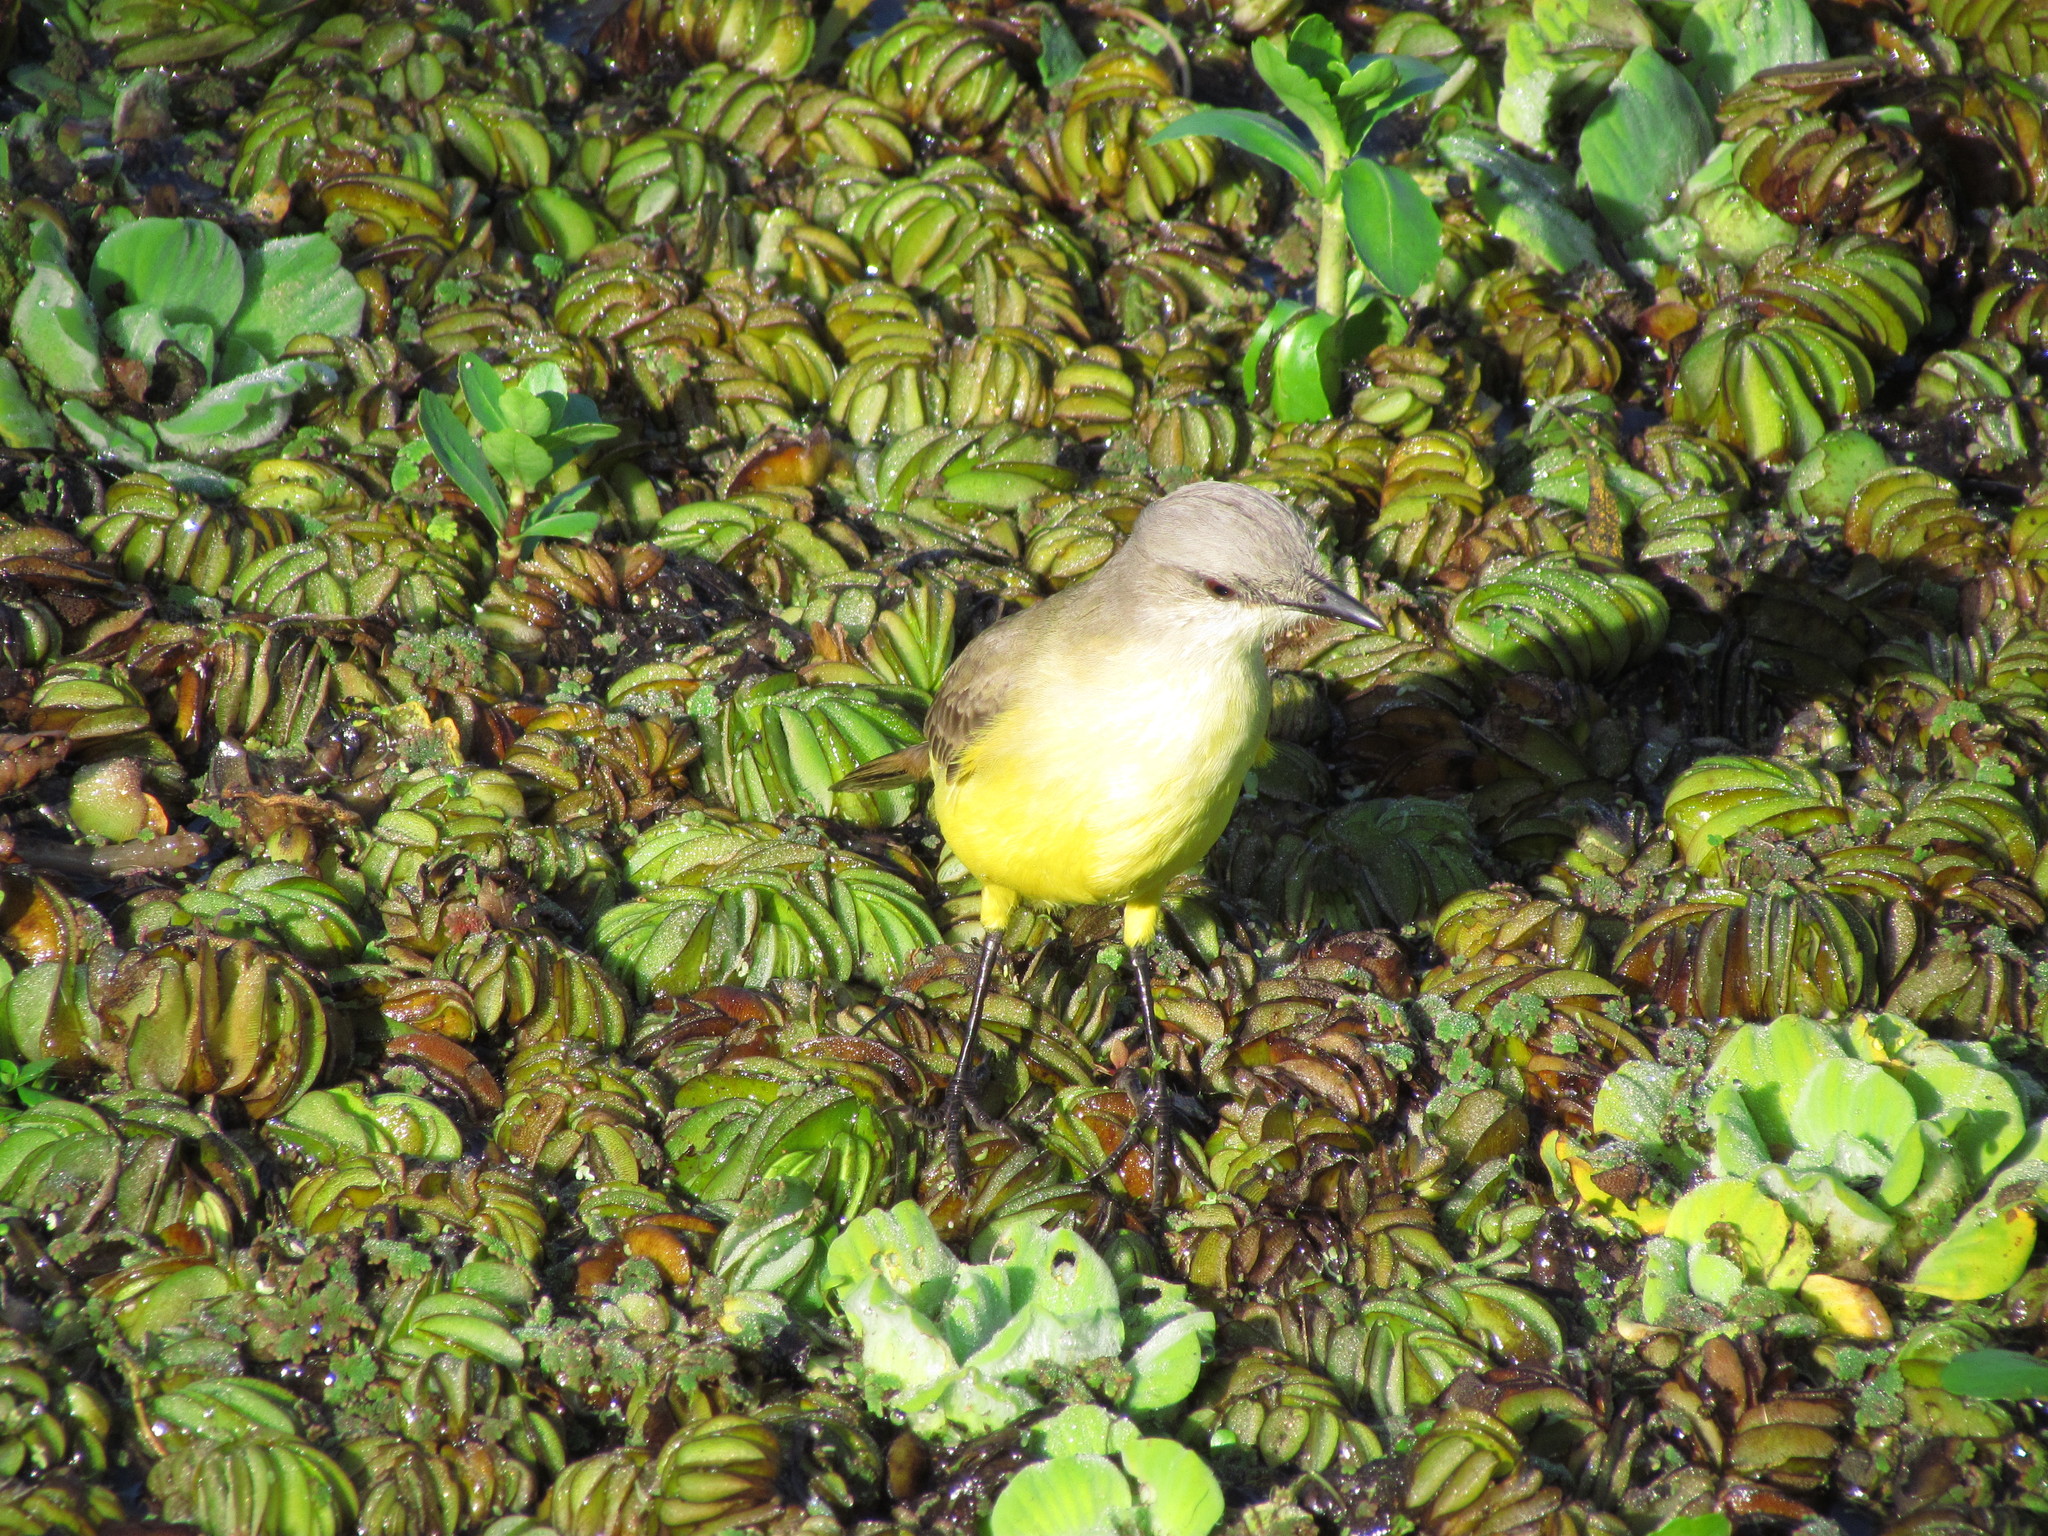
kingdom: Animalia
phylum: Chordata
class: Aves
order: Passeriformes
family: Tyrannidae
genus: Machetornis
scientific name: Machetornis rixosa
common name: Cattle tyrant
